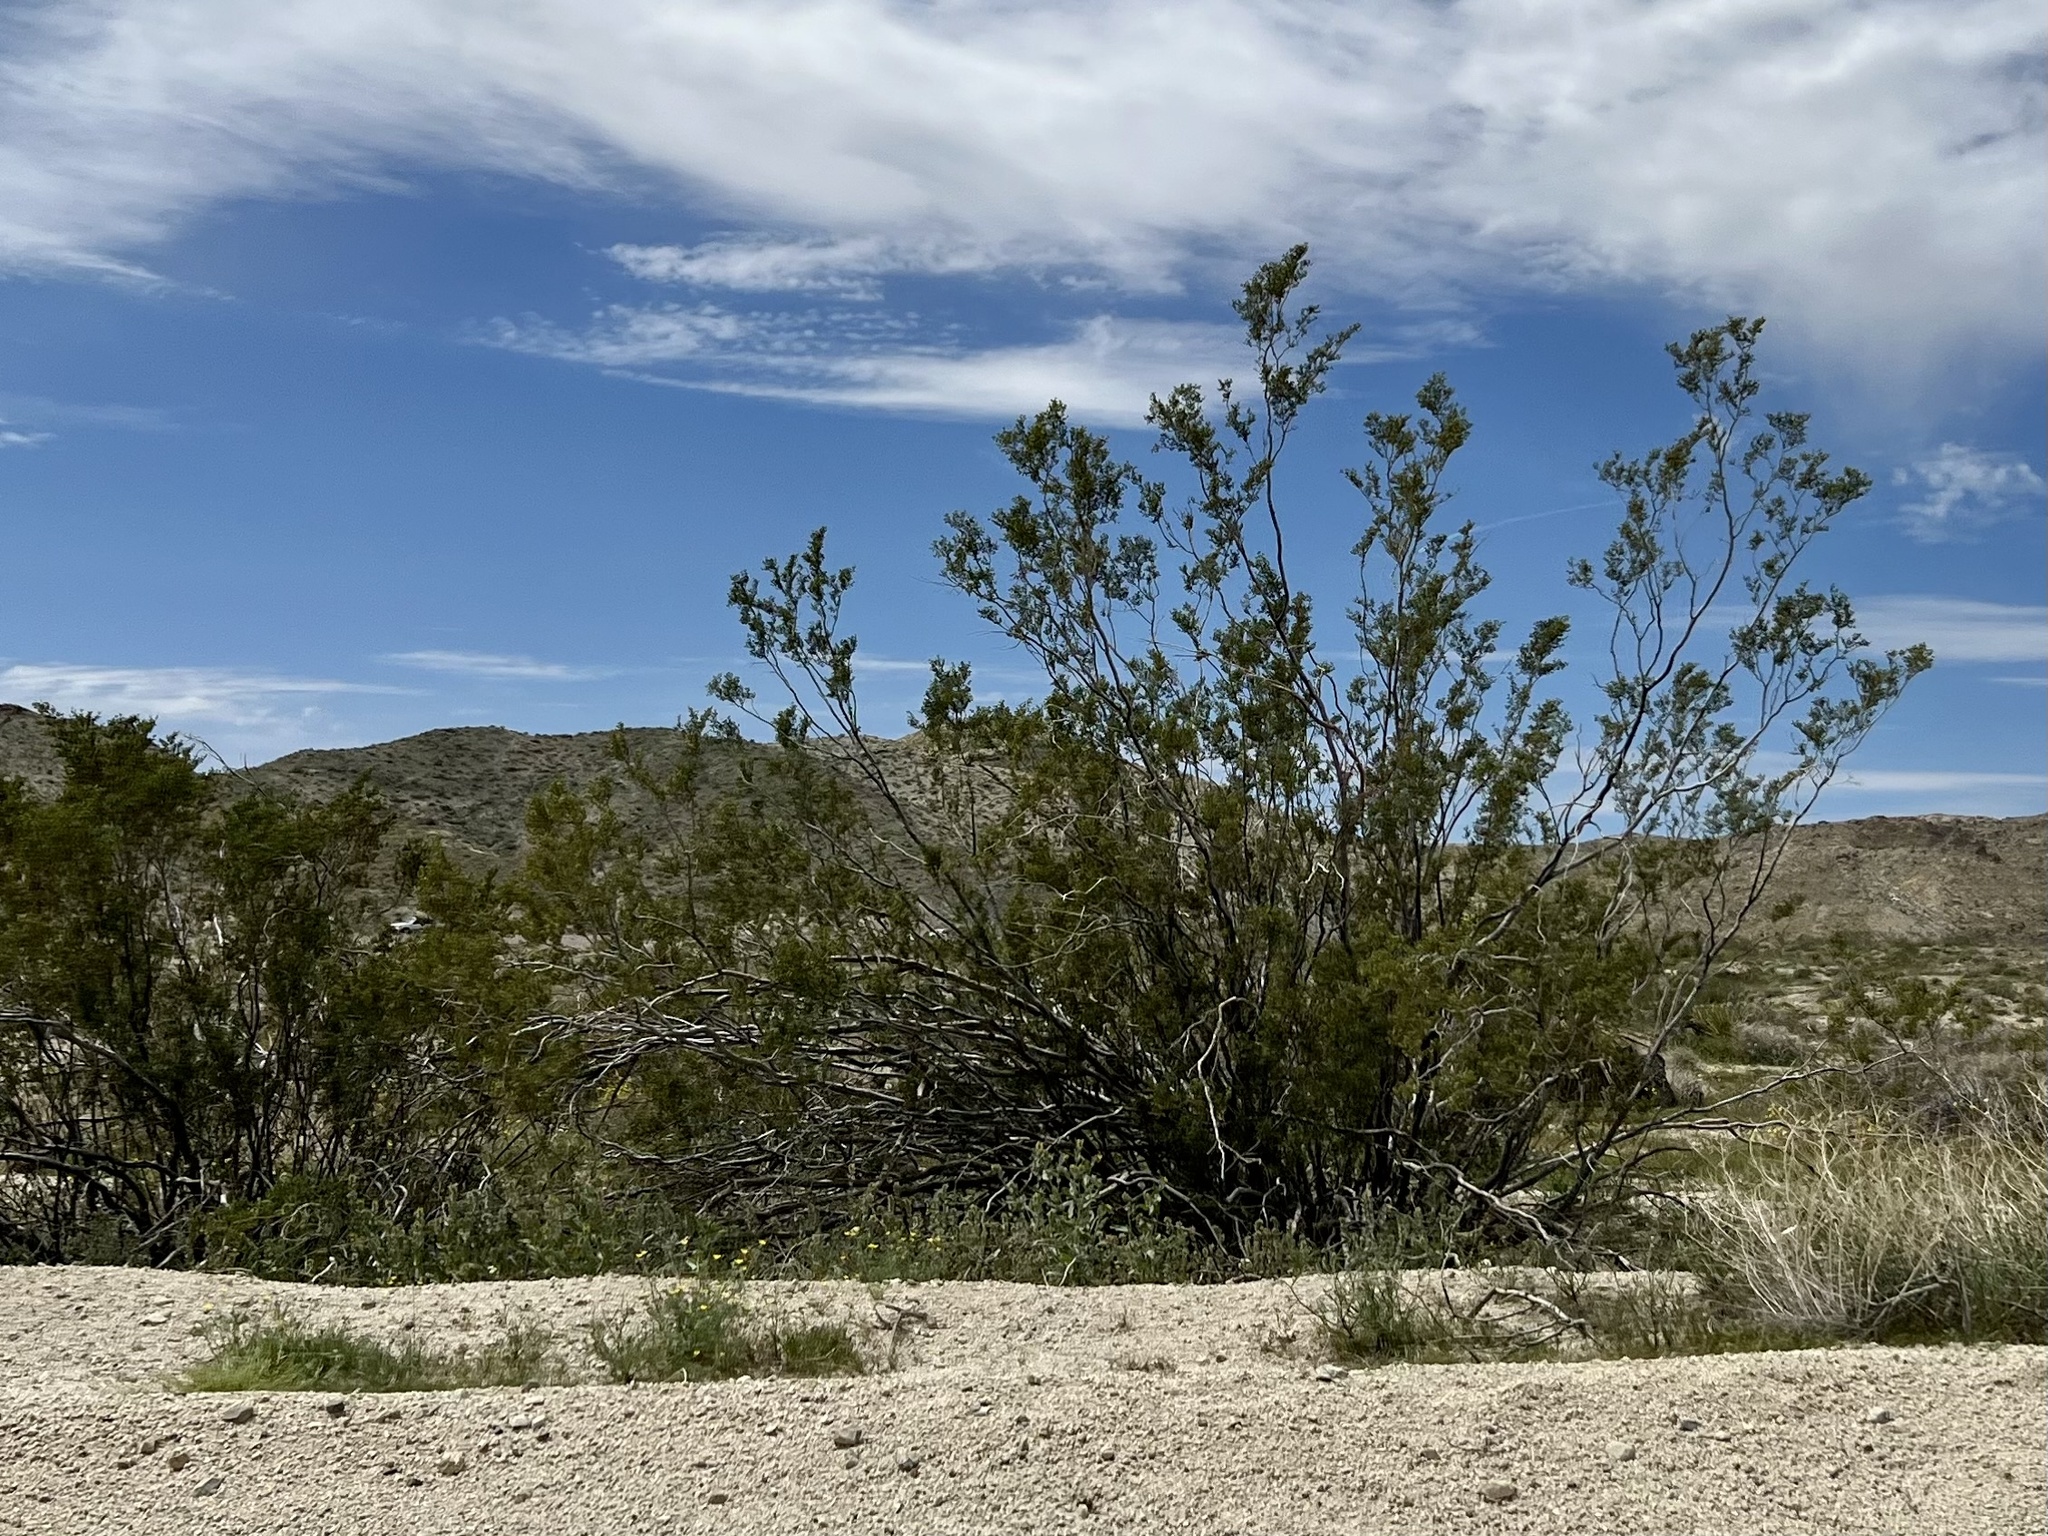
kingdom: Plantae
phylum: Tracheophyta
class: Magnoliopsida
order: Zygophyllales
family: Zygophyllaceae
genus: Larrea
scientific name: Larrea tridentata
